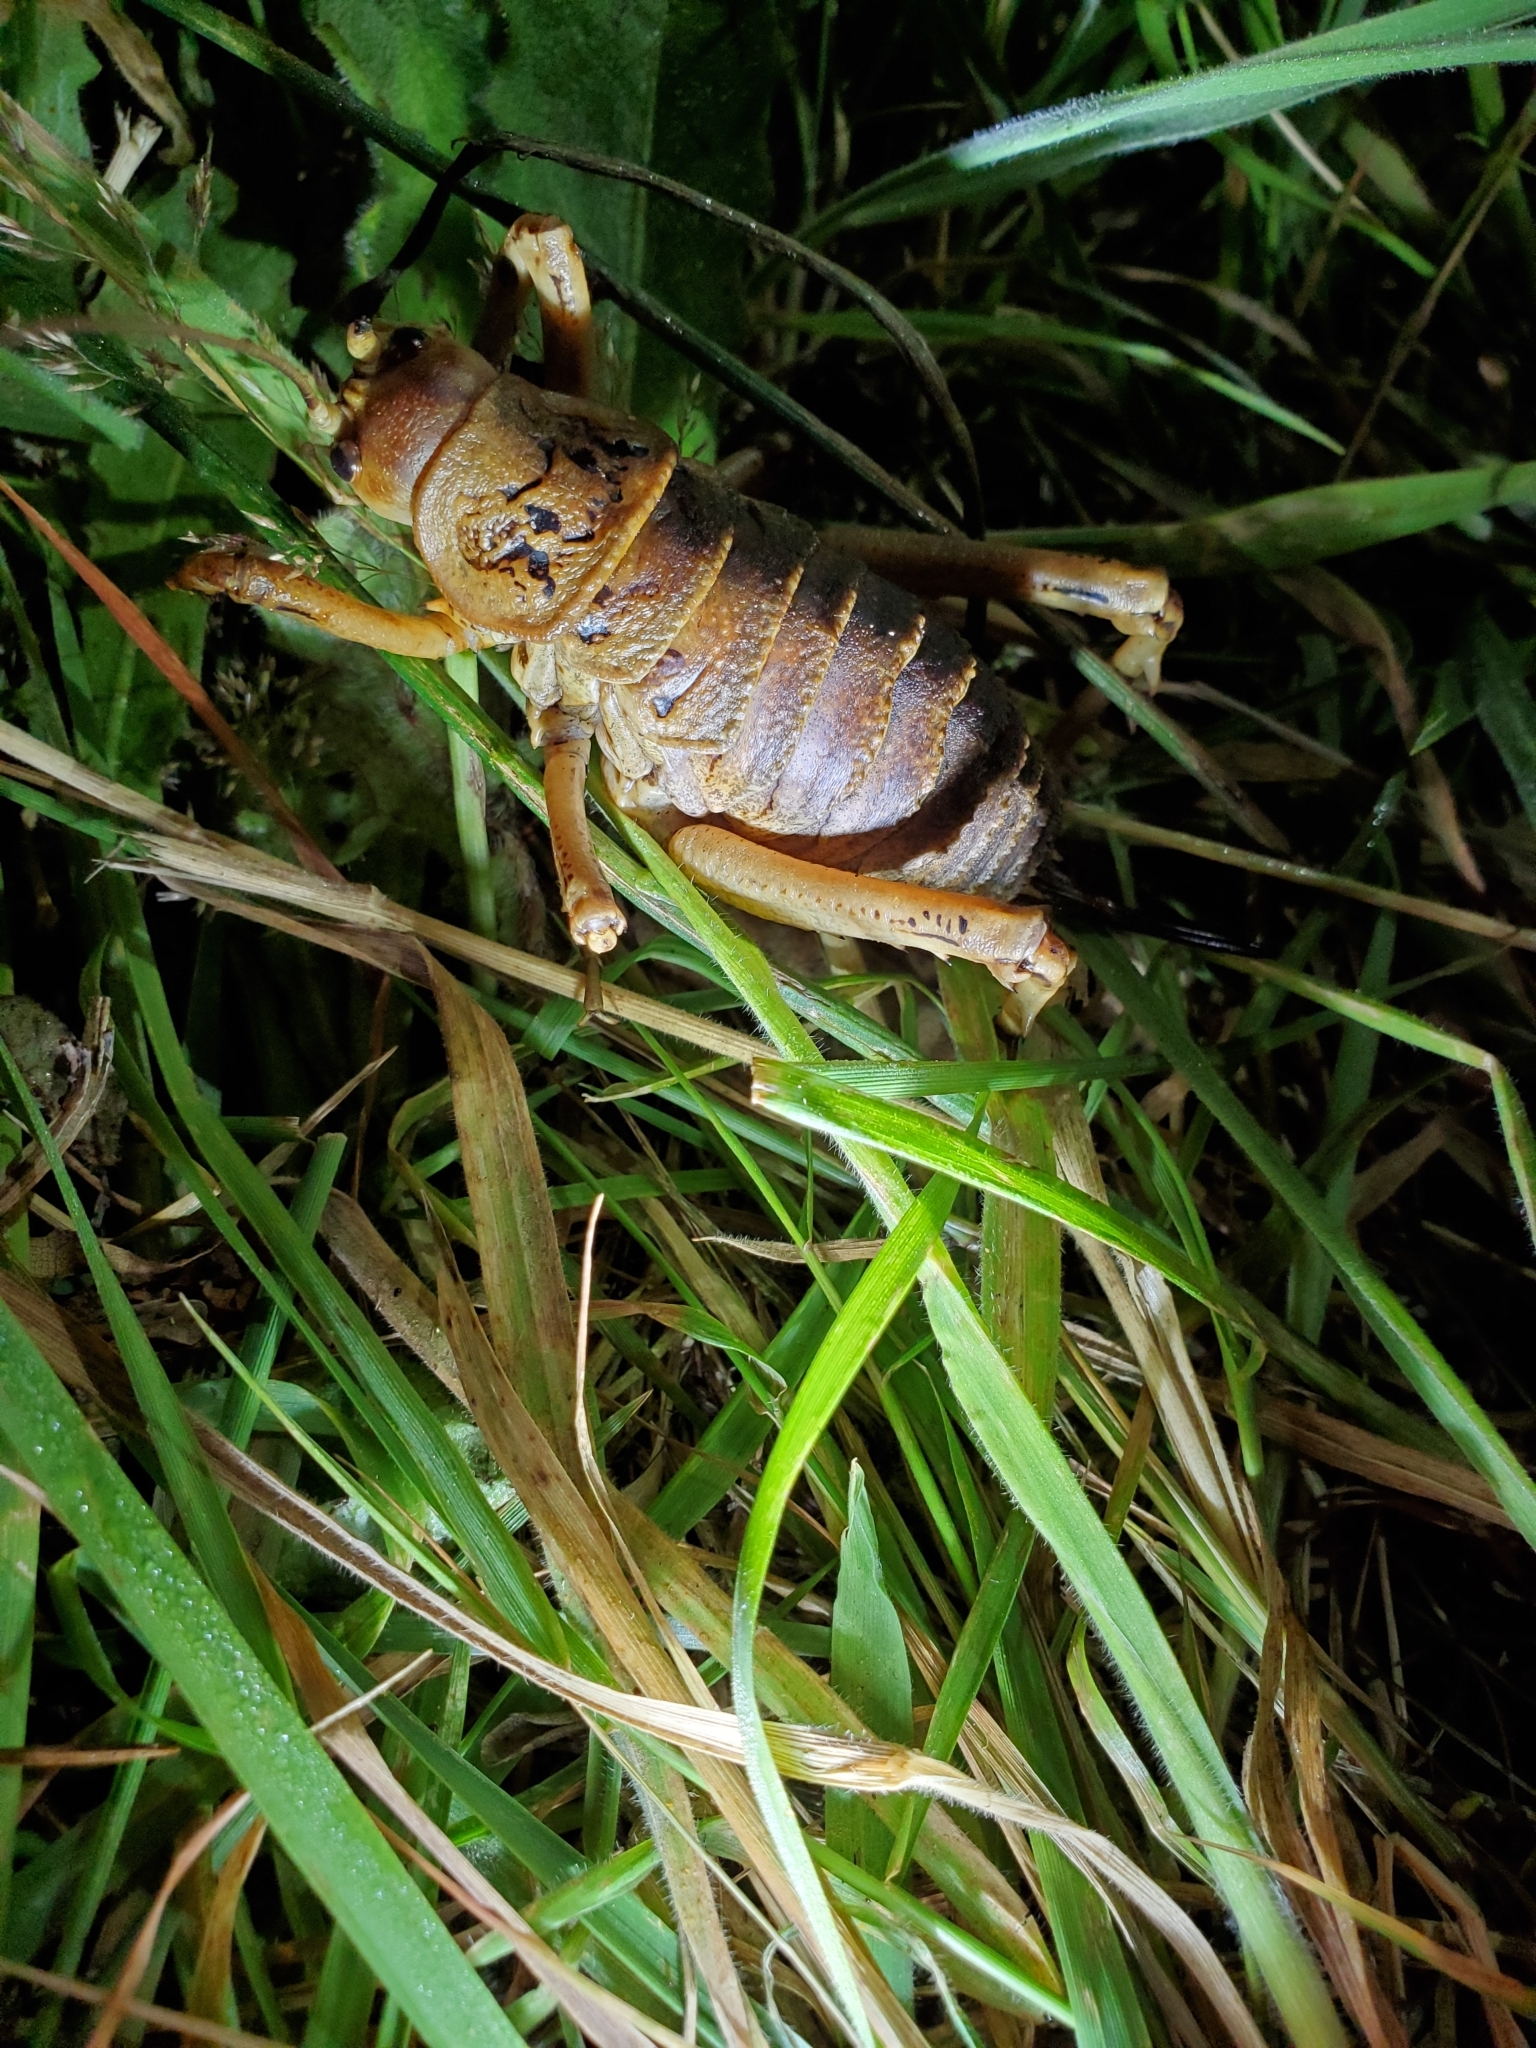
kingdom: Animalia
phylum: Arthropoda
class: Insecta
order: Orthoptera
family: Anostostomatidae
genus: Deinacrida
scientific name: Deinacrida rugosa
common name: Stephens island weta
